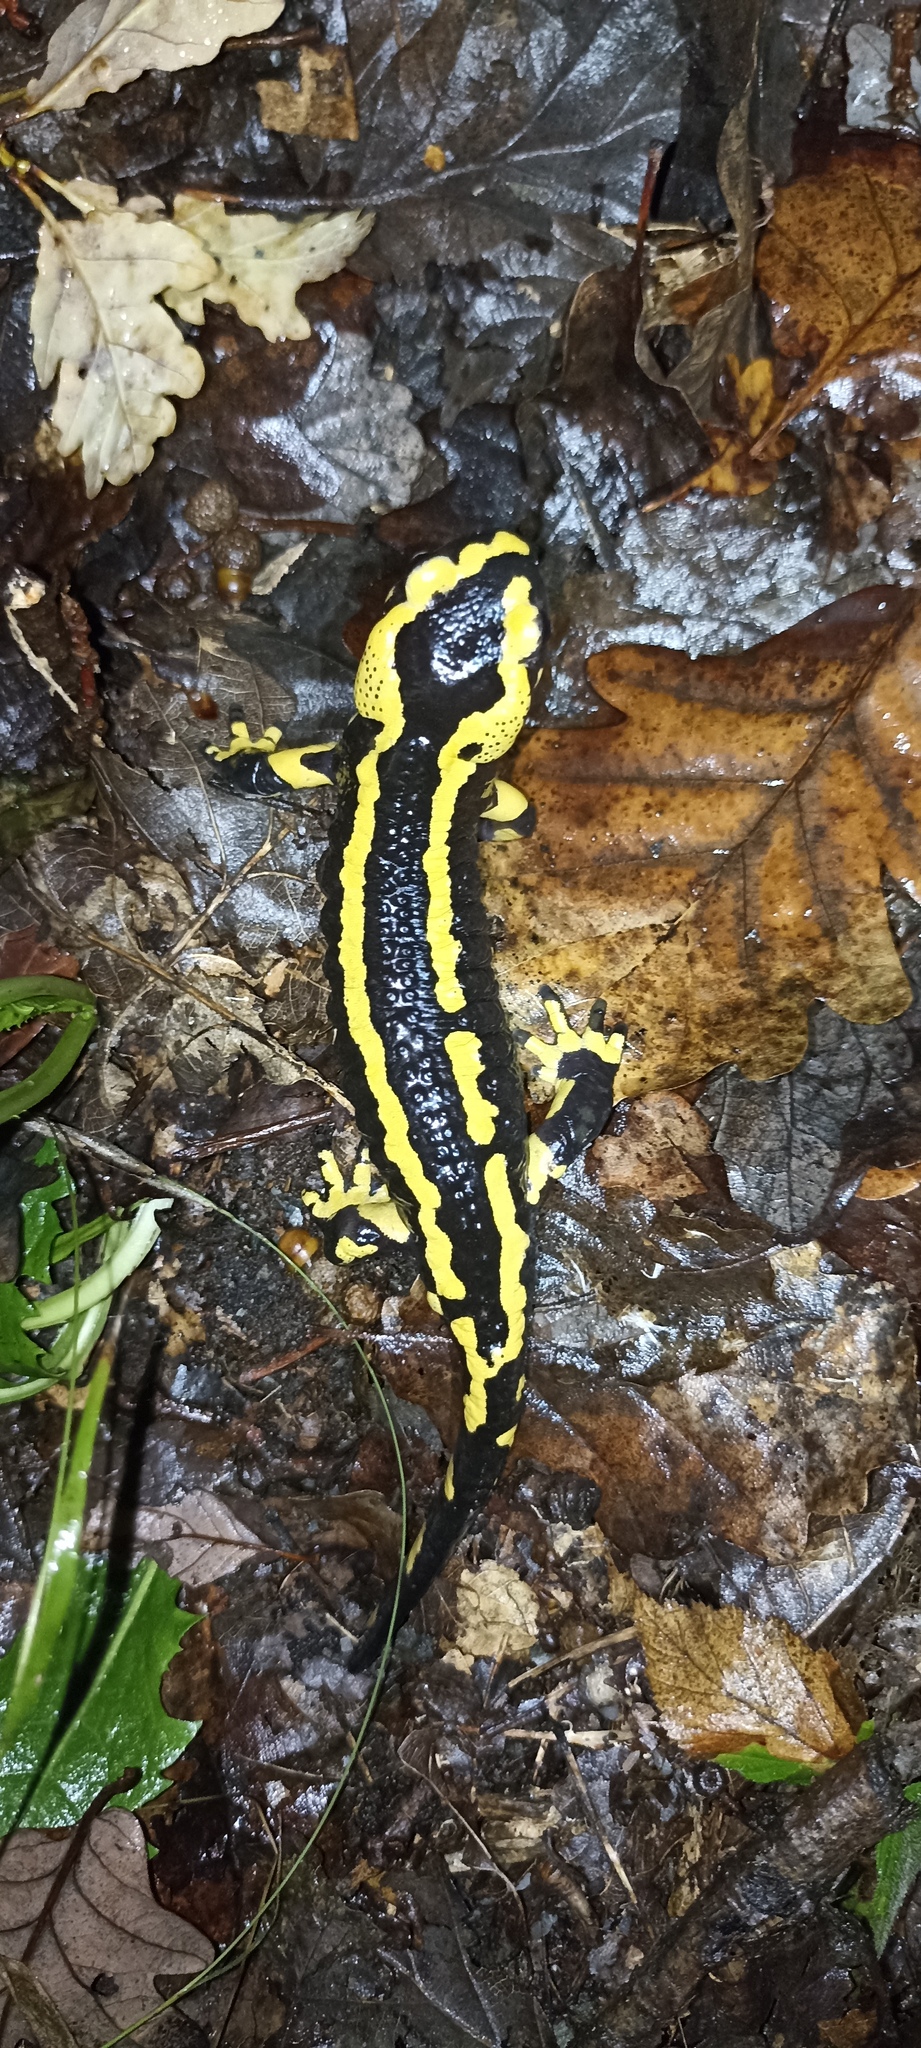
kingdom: Animalia
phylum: Chordata
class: Amphibia
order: Caudata
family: Salamandridae
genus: Salamandra
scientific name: Salamandra salamandra
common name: Fire salamander
